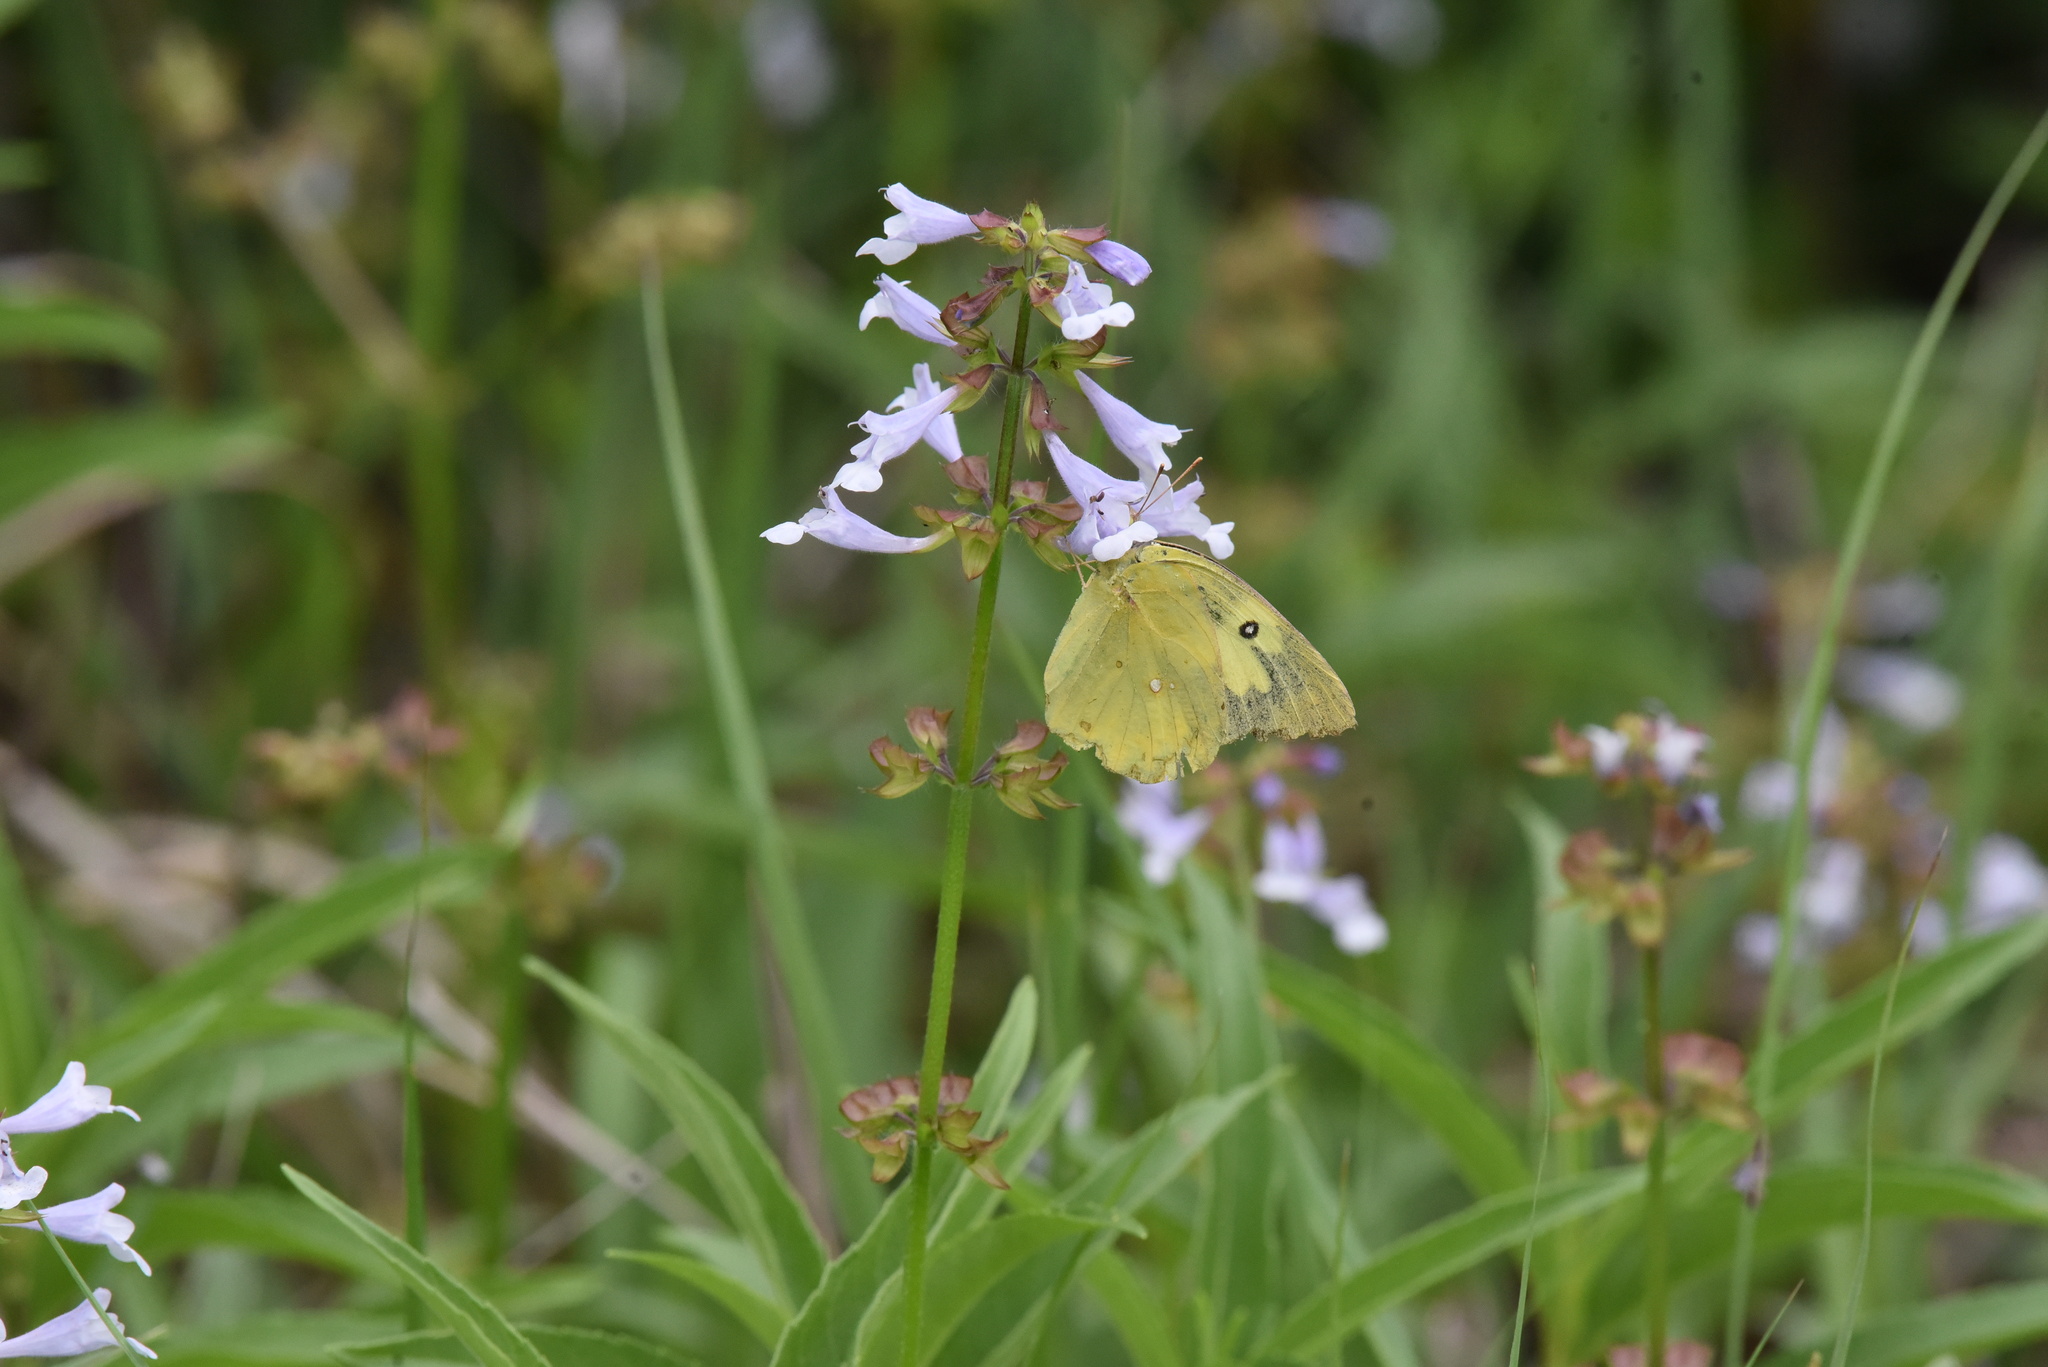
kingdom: Animalia
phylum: Arthropoda
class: Insecta
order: Lepidoptera
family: Pieridae
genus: Zerene
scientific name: Zerene cesonia
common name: Southern dogface
